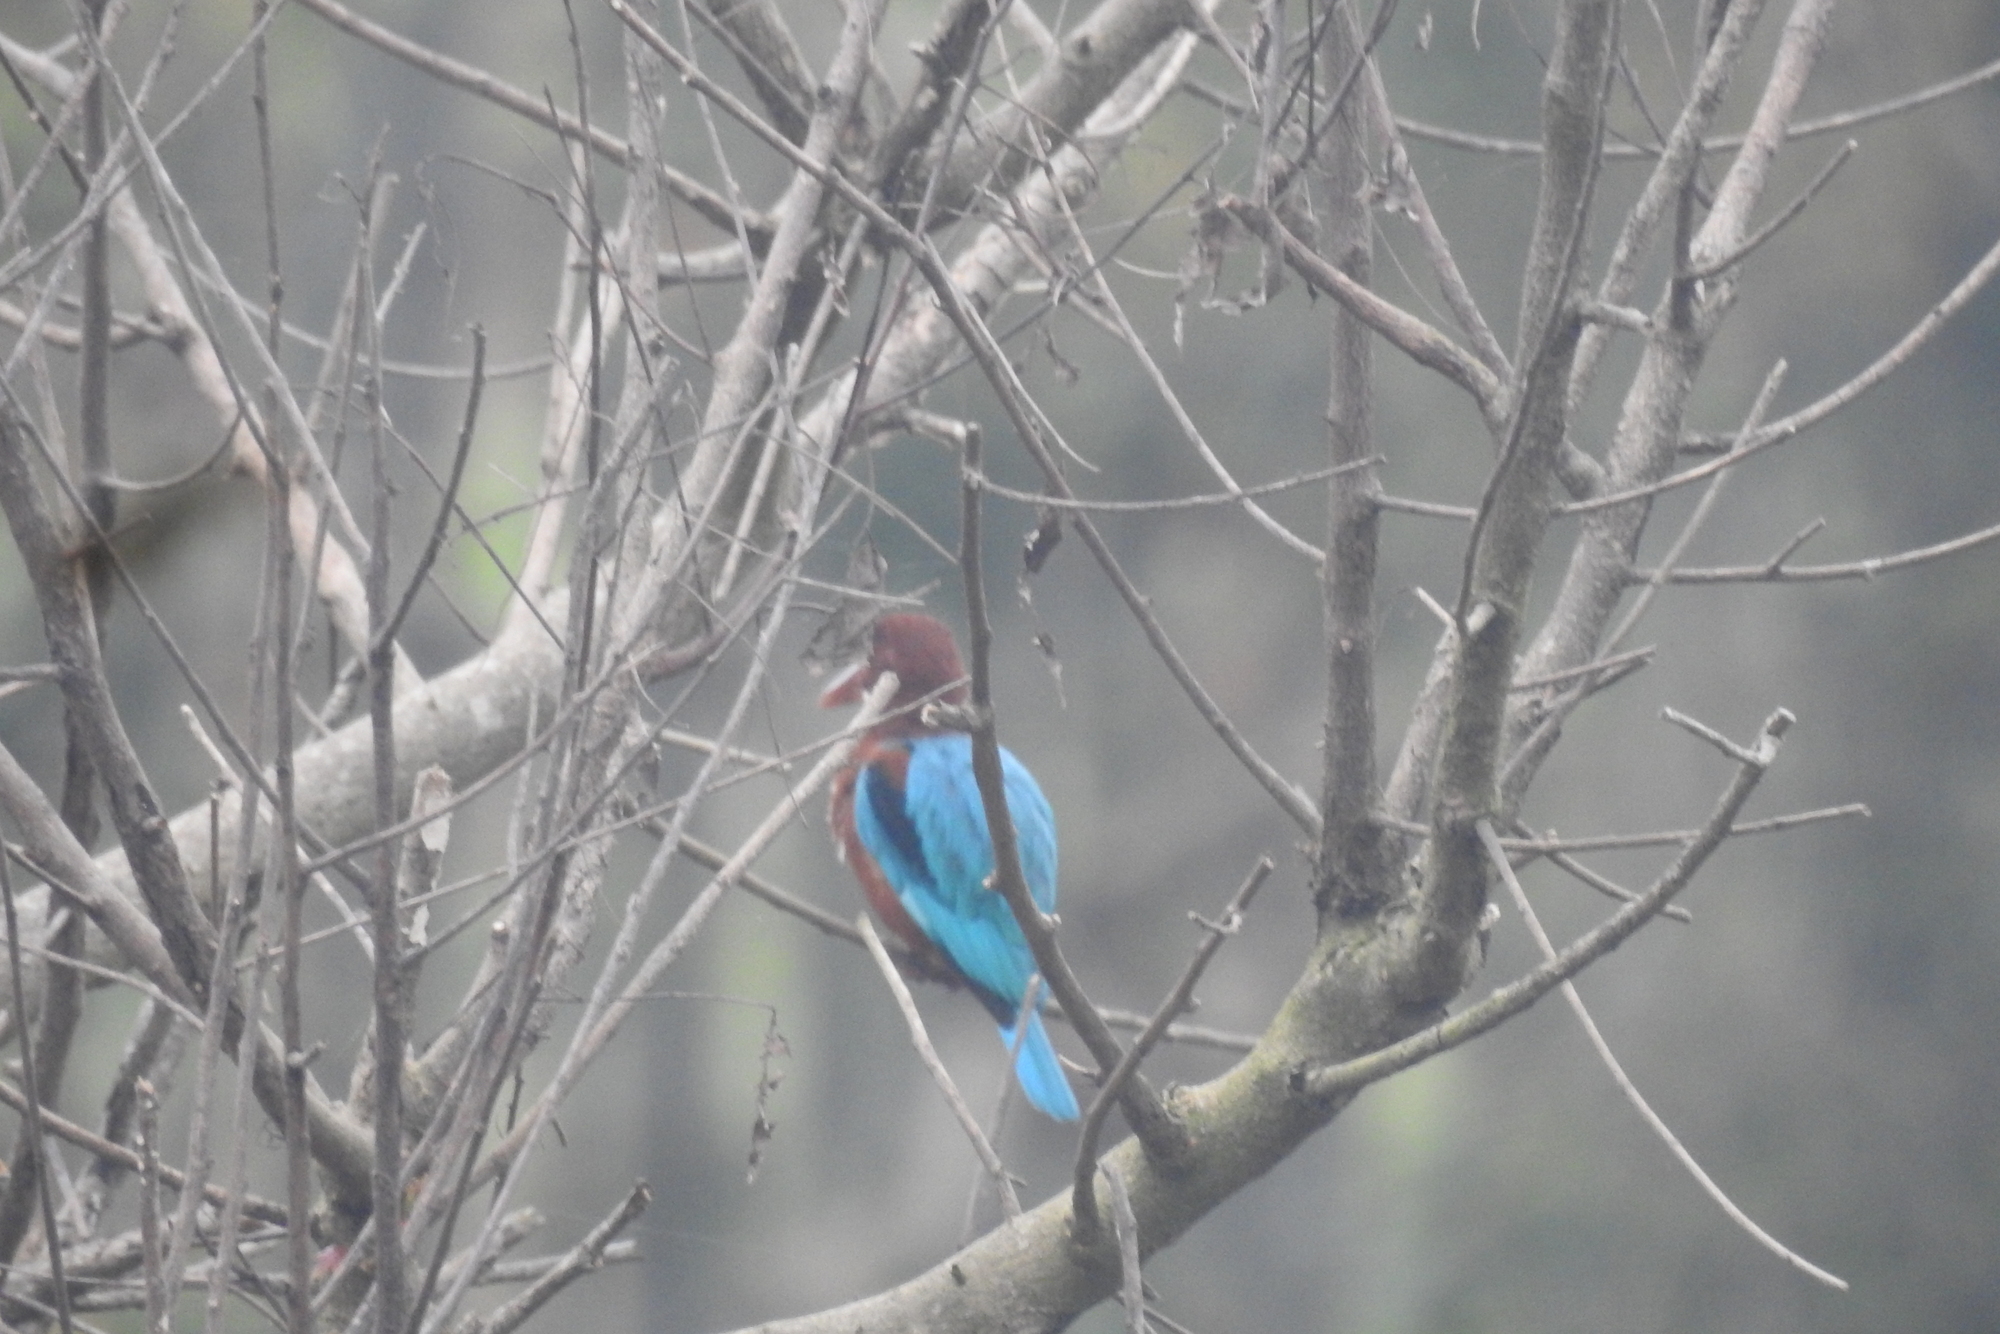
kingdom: Animalia
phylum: Chordata
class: Aves
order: Coraciiformes
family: Alcedinidae
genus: Halcyon
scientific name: Halcyon smyrnensis
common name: White-throated kingfisher
